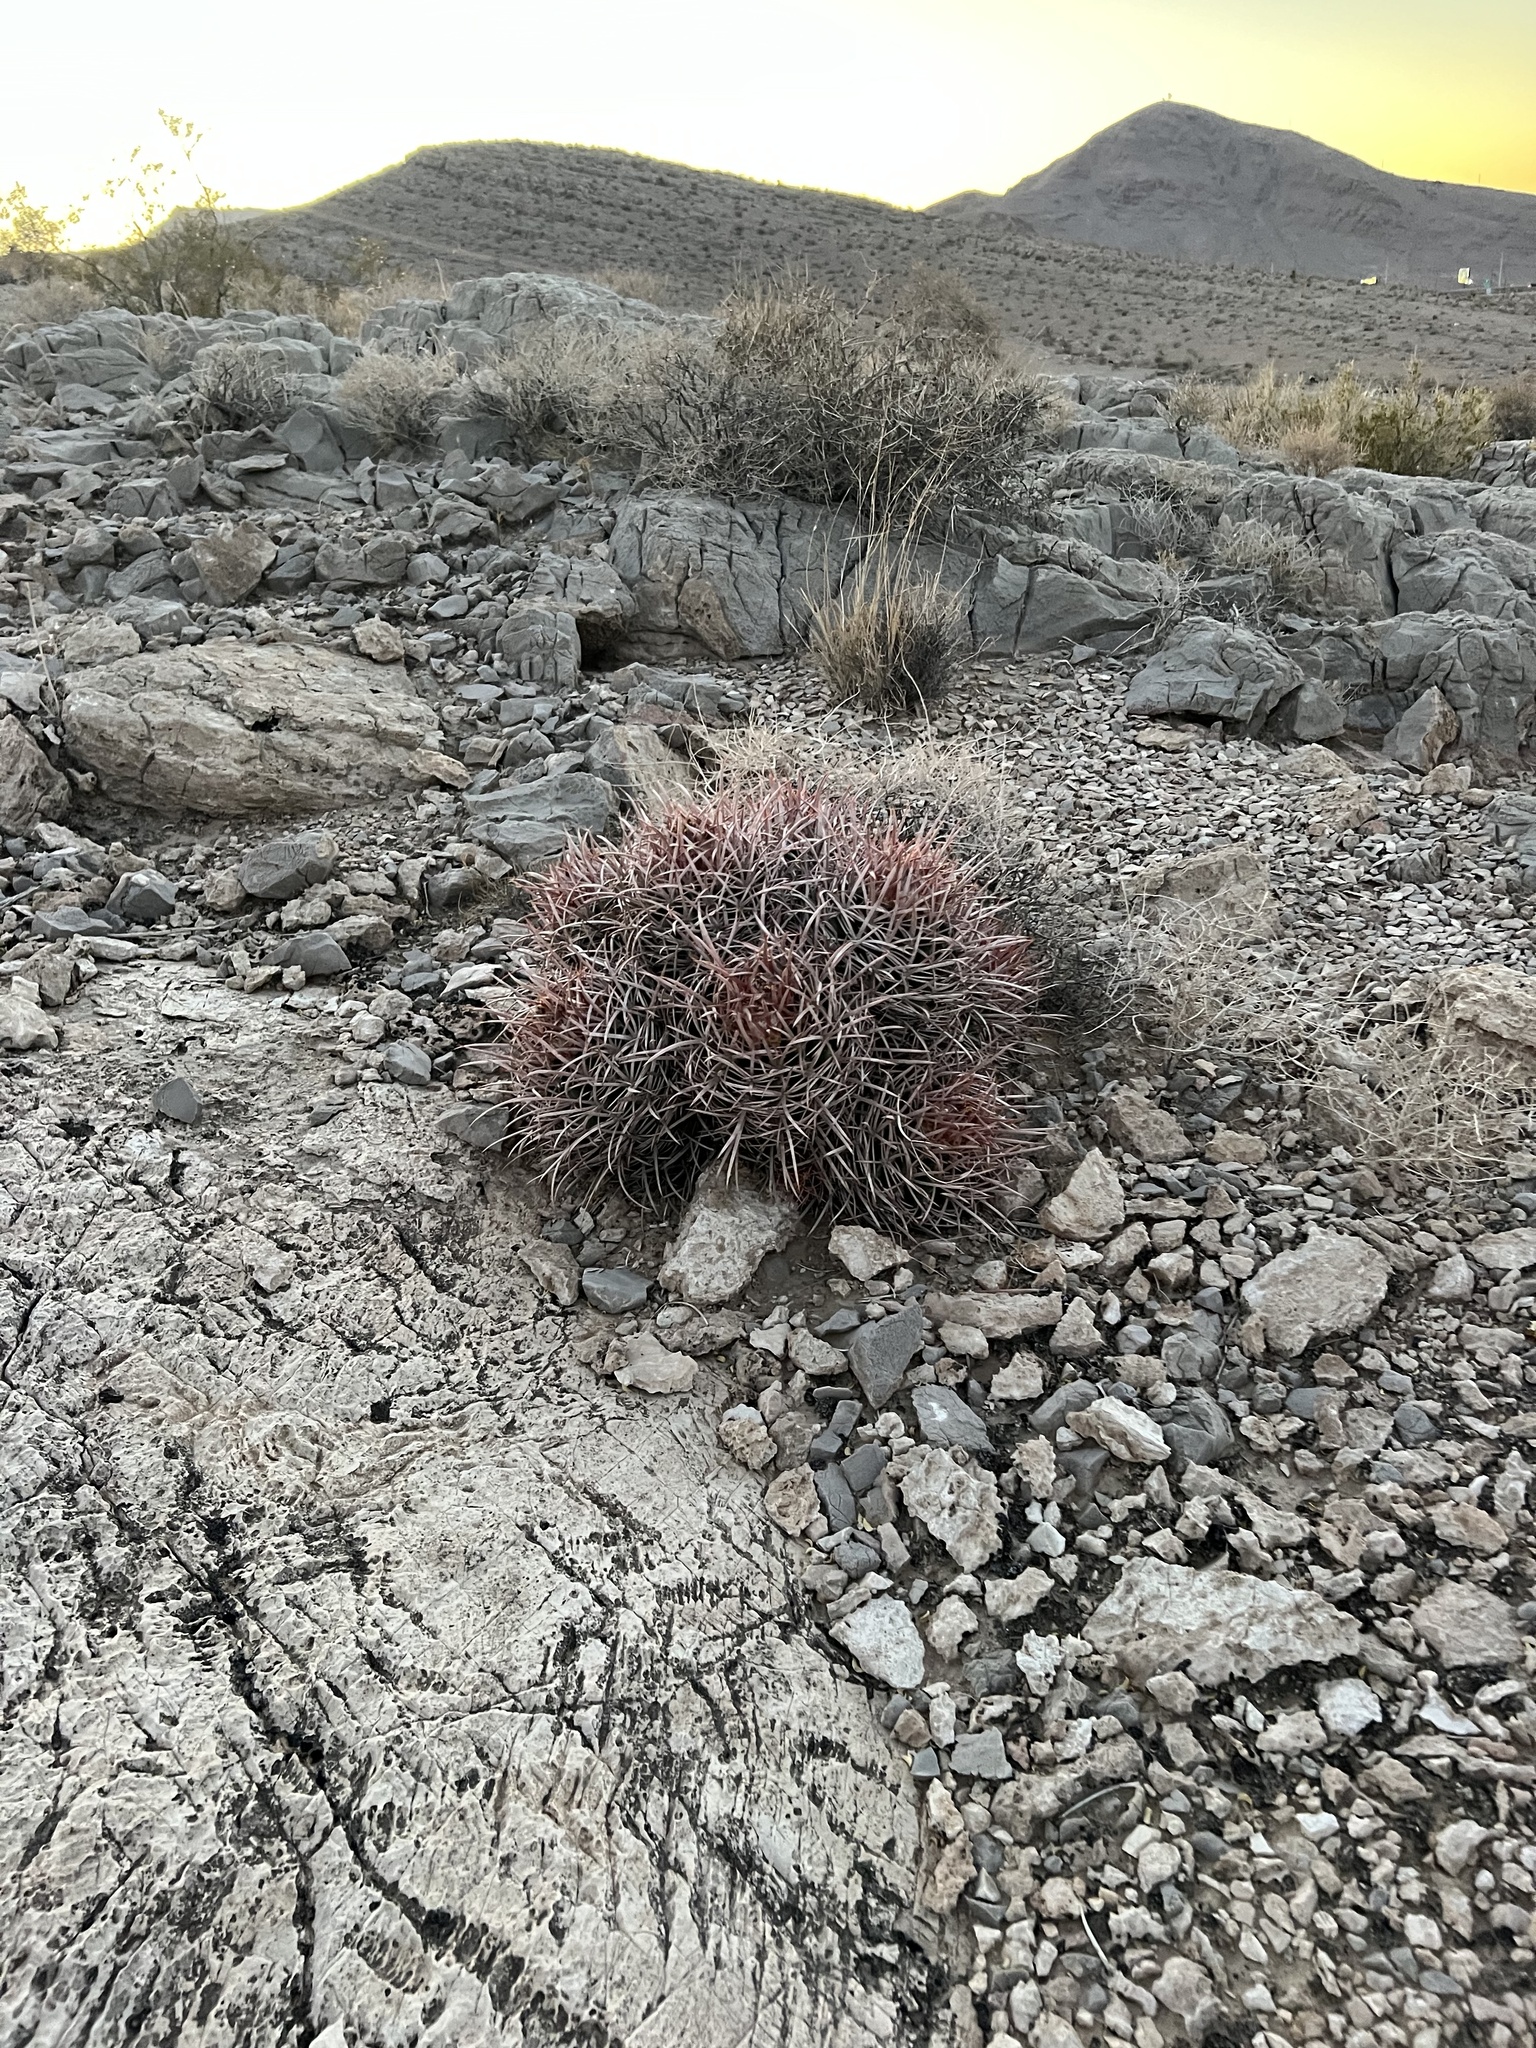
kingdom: Plantae
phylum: Tracheophyta
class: Magnoliopsida
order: Caryophyllales
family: Cactaceae
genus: Echinocactus
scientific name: Echinocactus polycephalus
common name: Cottontop cactus
